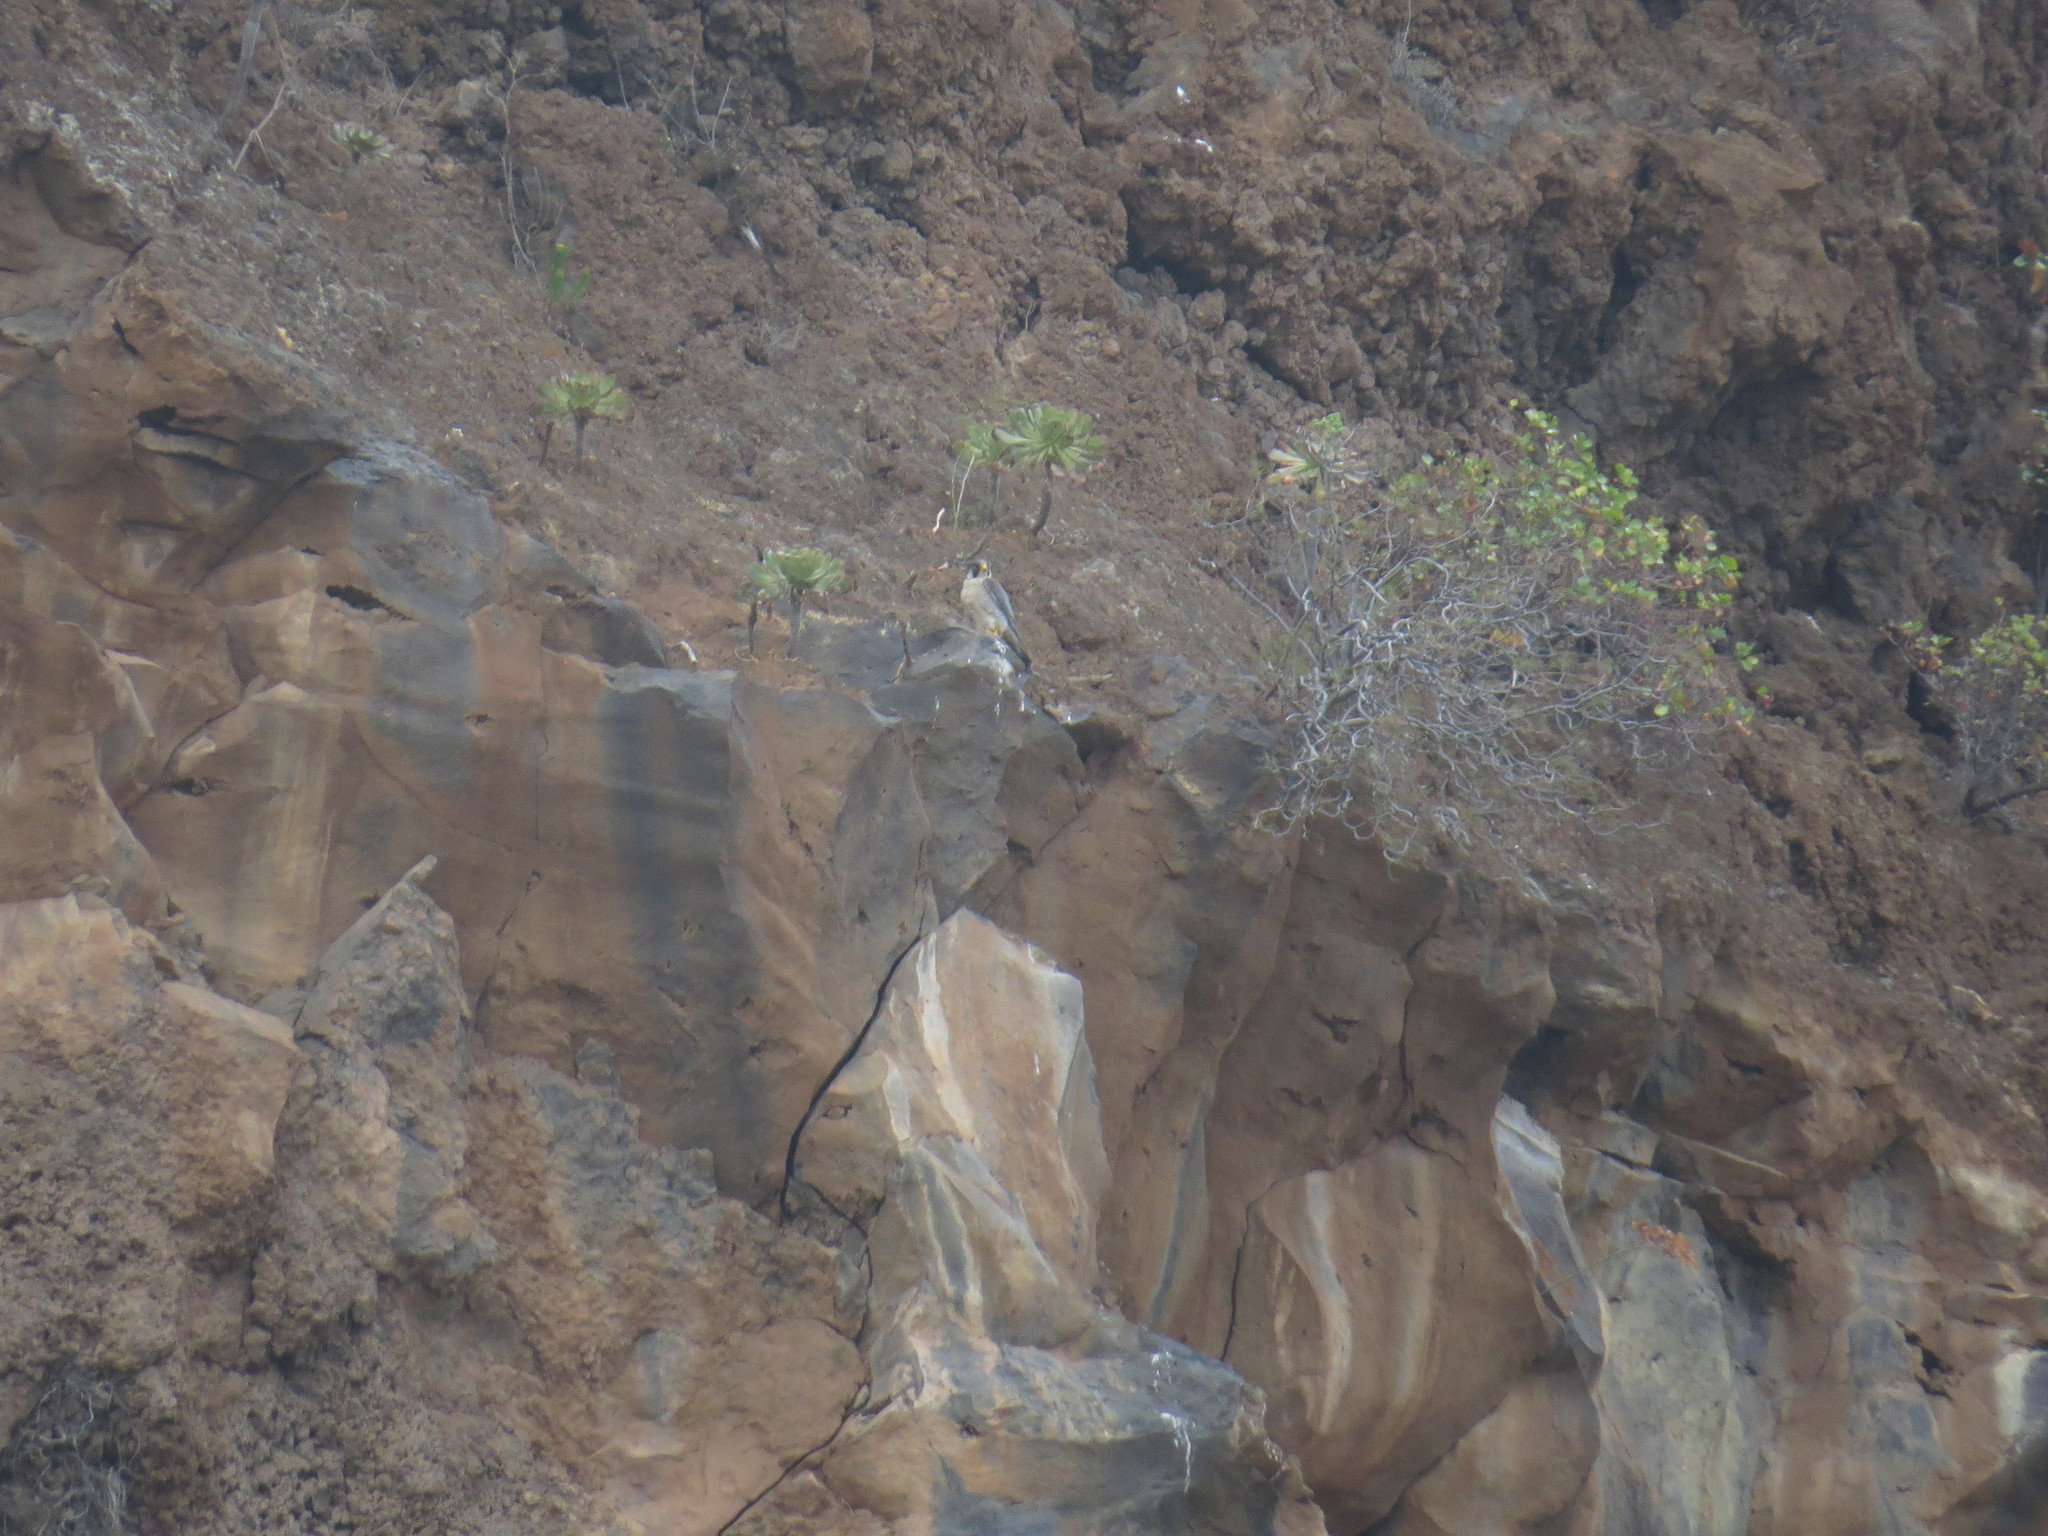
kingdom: Animalia
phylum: Chordata
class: Aves
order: Falconiformes
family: Falconidae
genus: Falco
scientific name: Falco peregrinus
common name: Peregrine falcon
